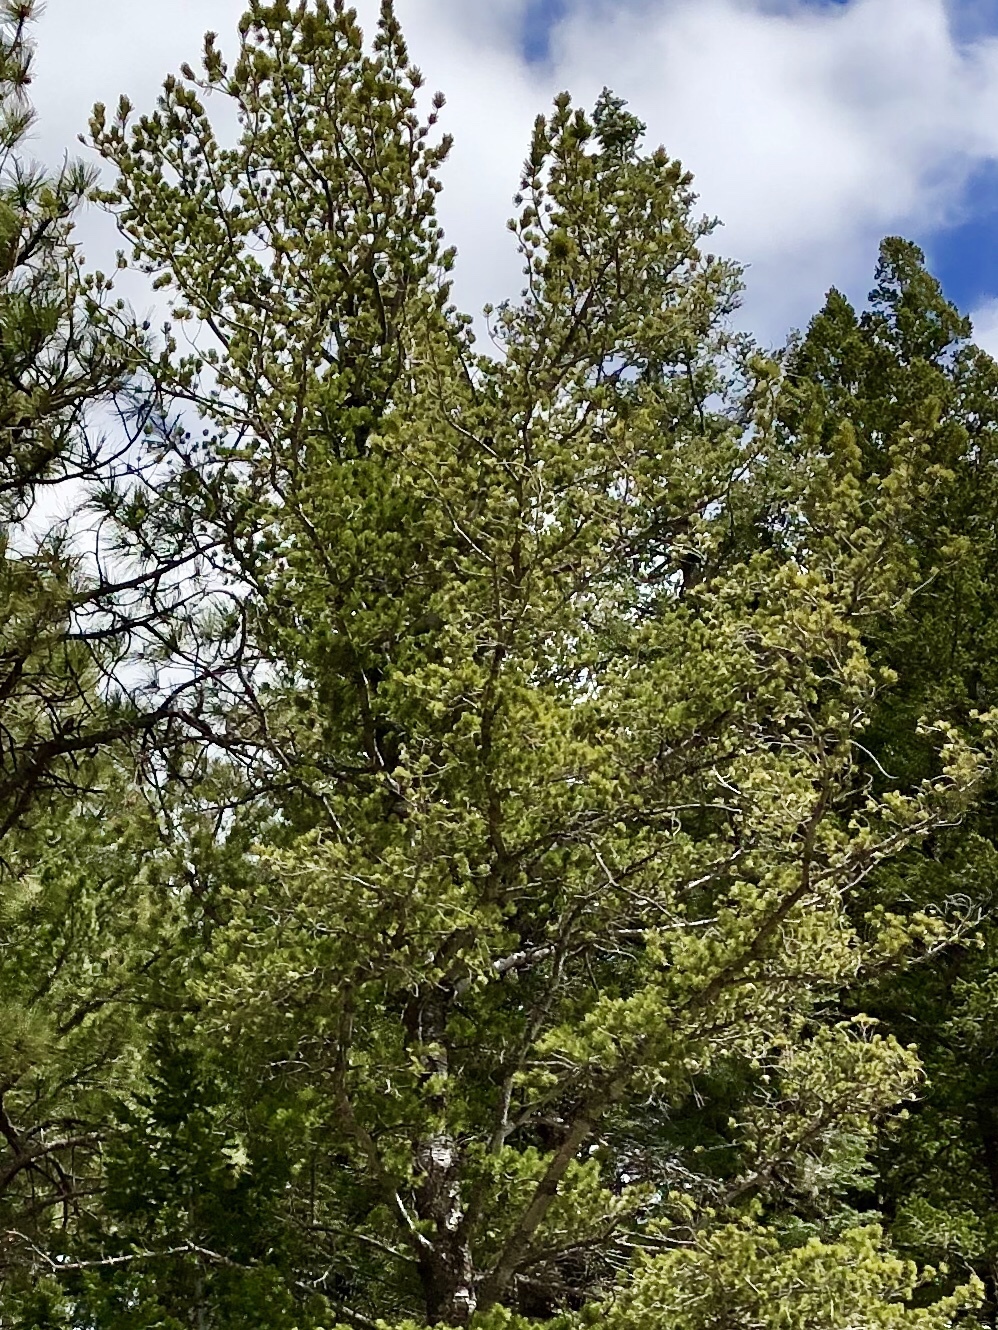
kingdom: Plantae
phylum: Tracheophyta
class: Pinopsida
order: Pinales
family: Pinaceae
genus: Pinus
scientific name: Pinus strobiformis
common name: Southwestern white pine
